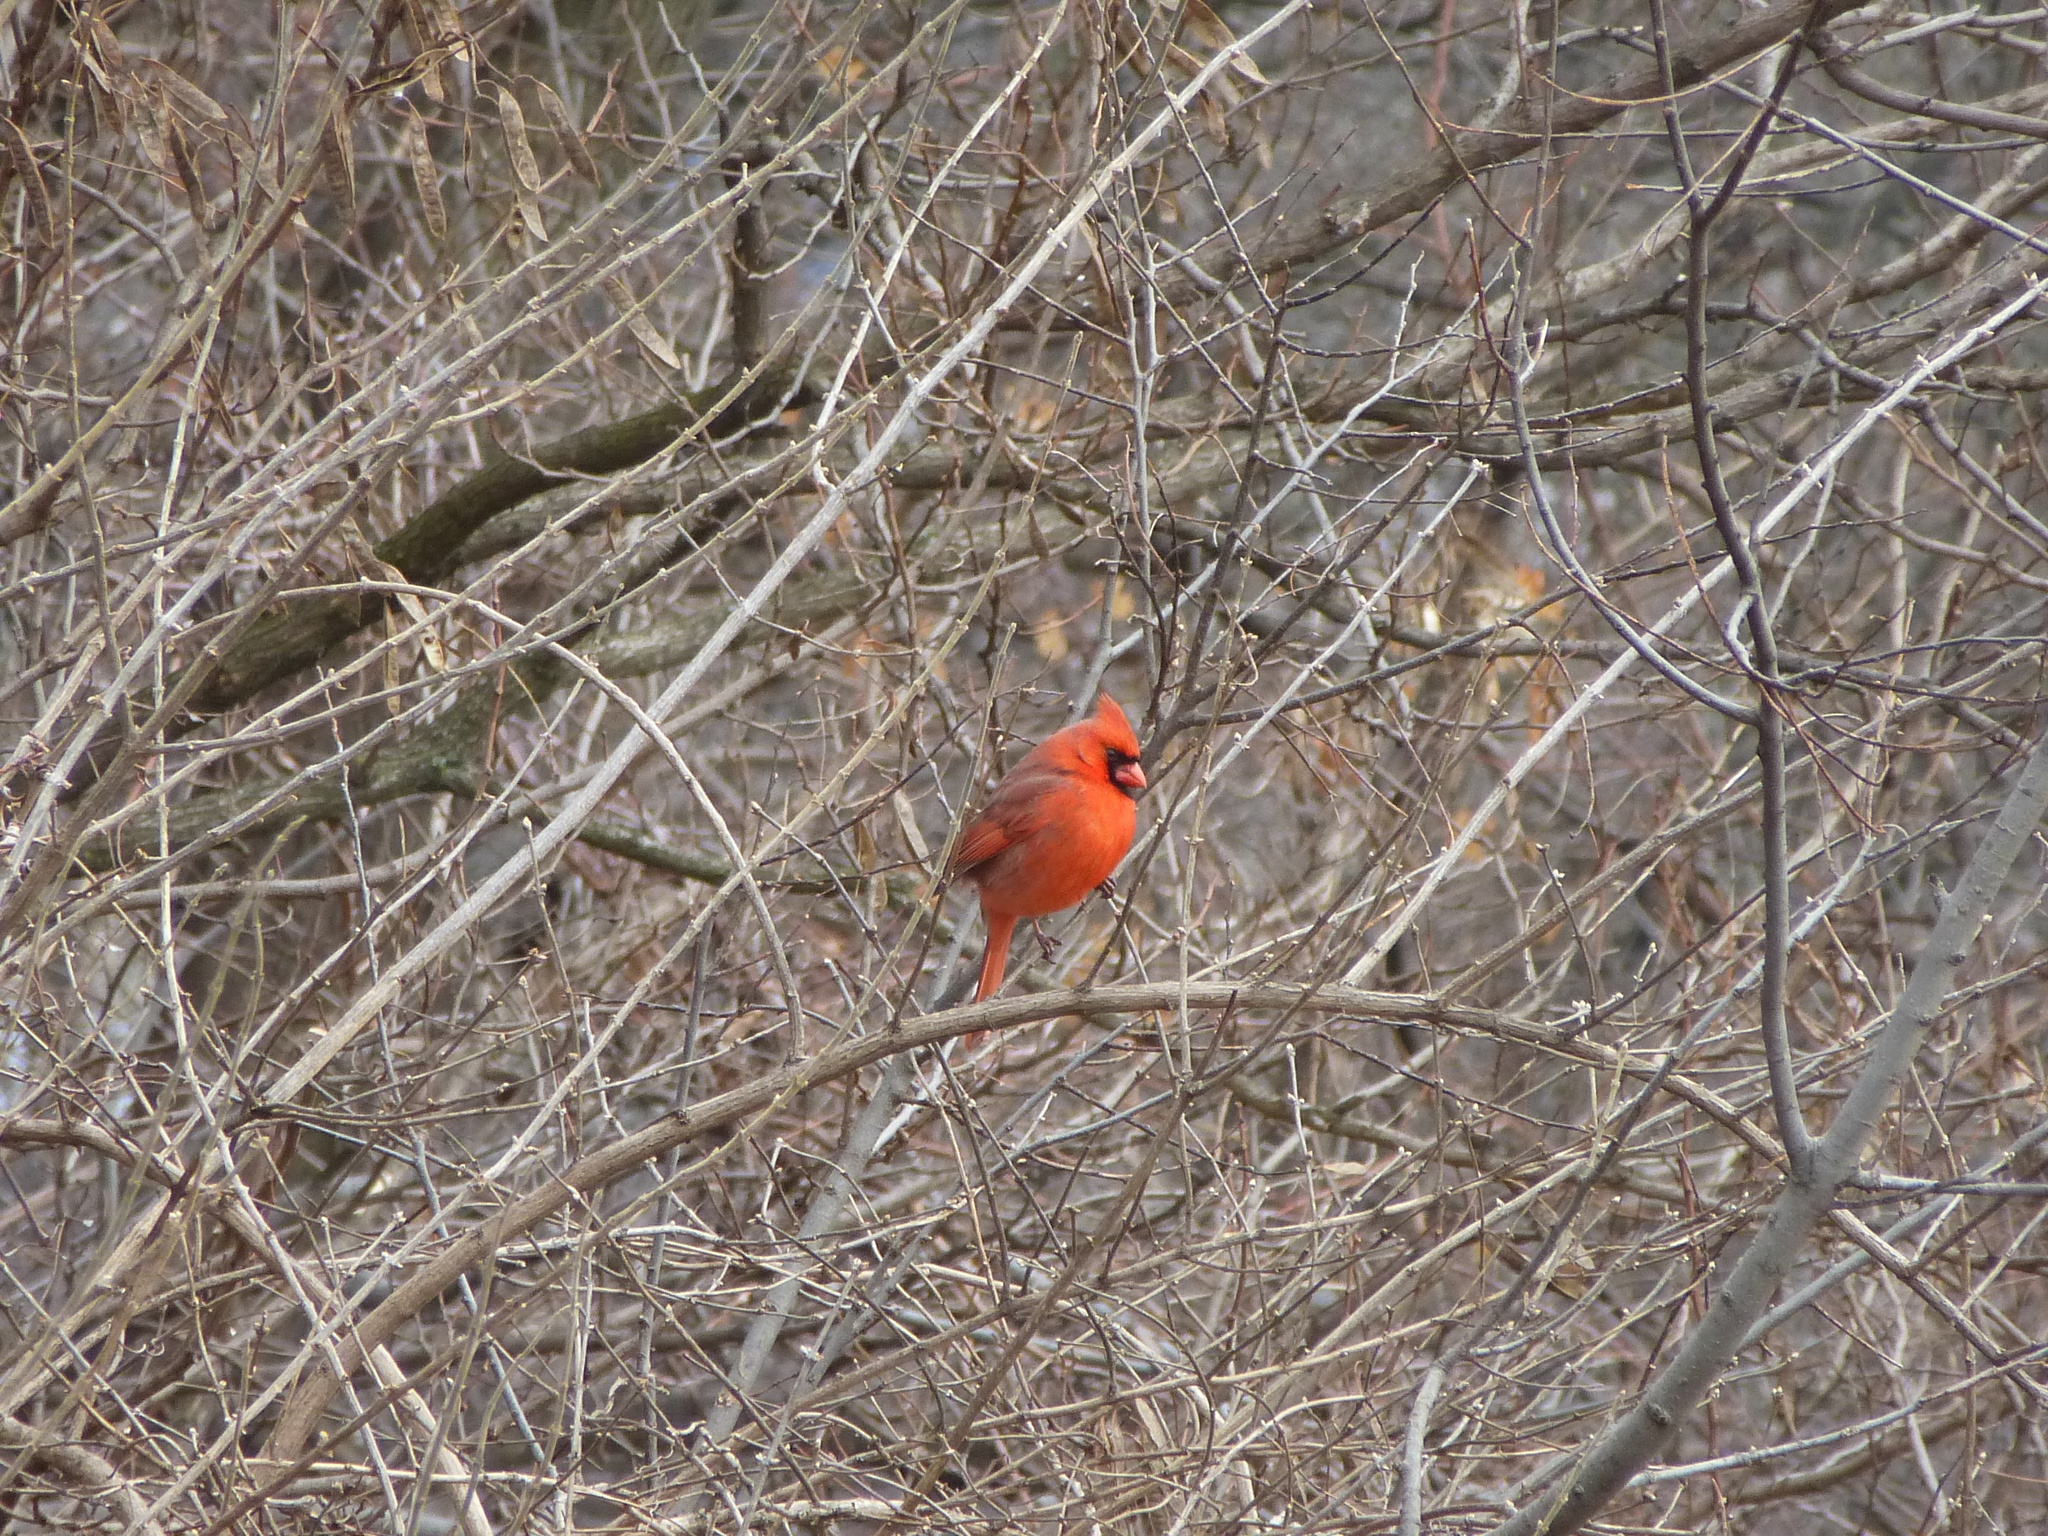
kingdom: Animalia
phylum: Chordata
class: Aves
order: Passeriformes
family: Cardinalidae
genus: Cardinalis
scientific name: Cardinalis cardinalis
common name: Northern cardinal
